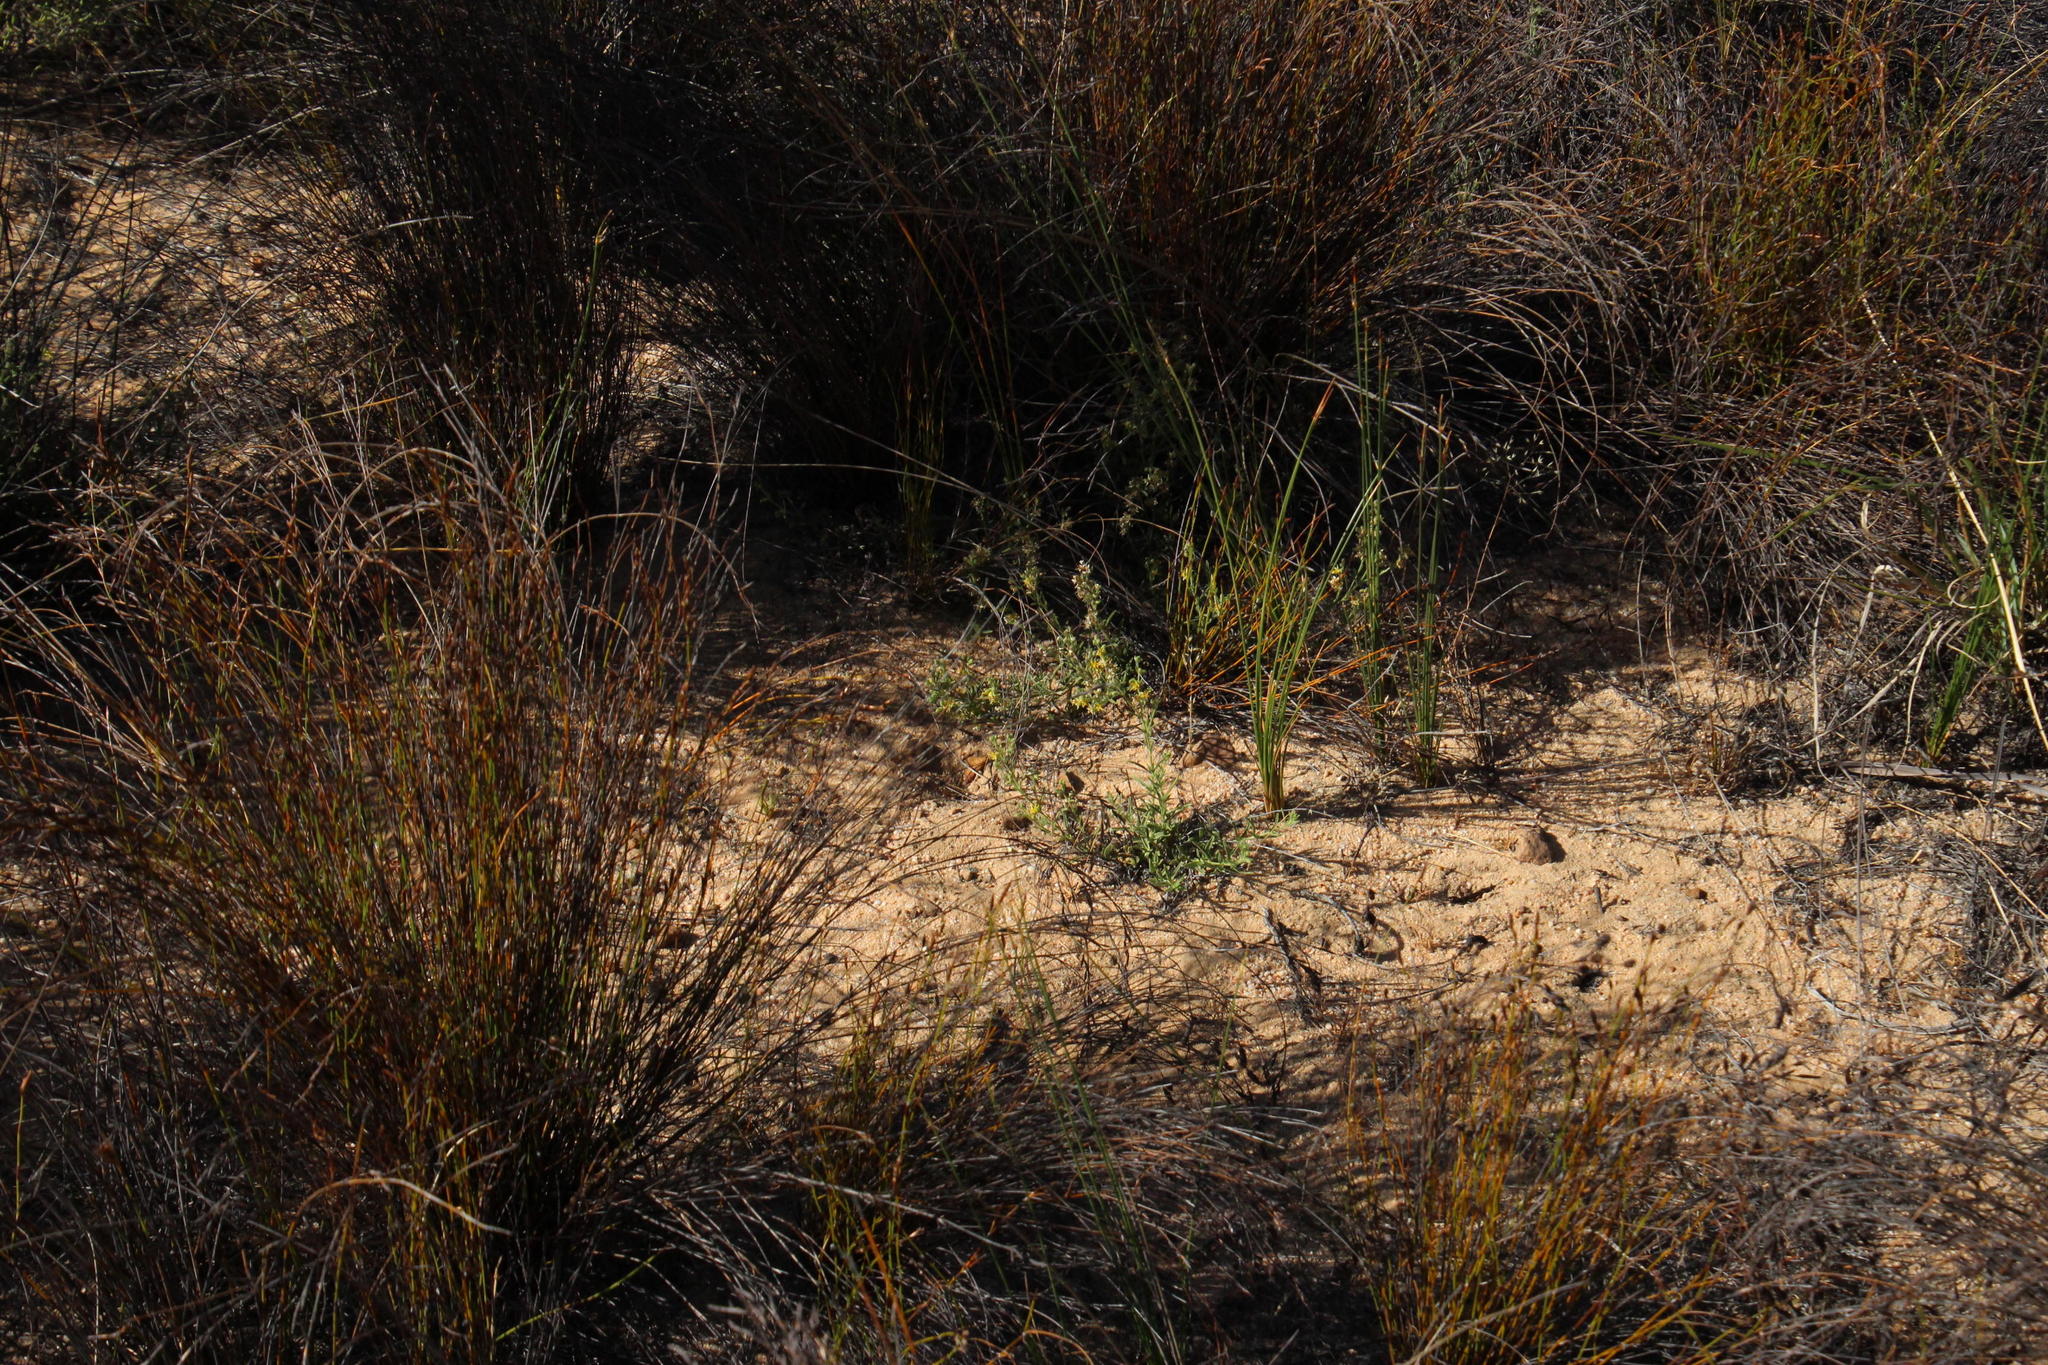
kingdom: Plantae
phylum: Tracheophyta
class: Magnoliopsida
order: Vahliales
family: Vahliaceae
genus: Vahlia
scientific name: Vahlia capensis
